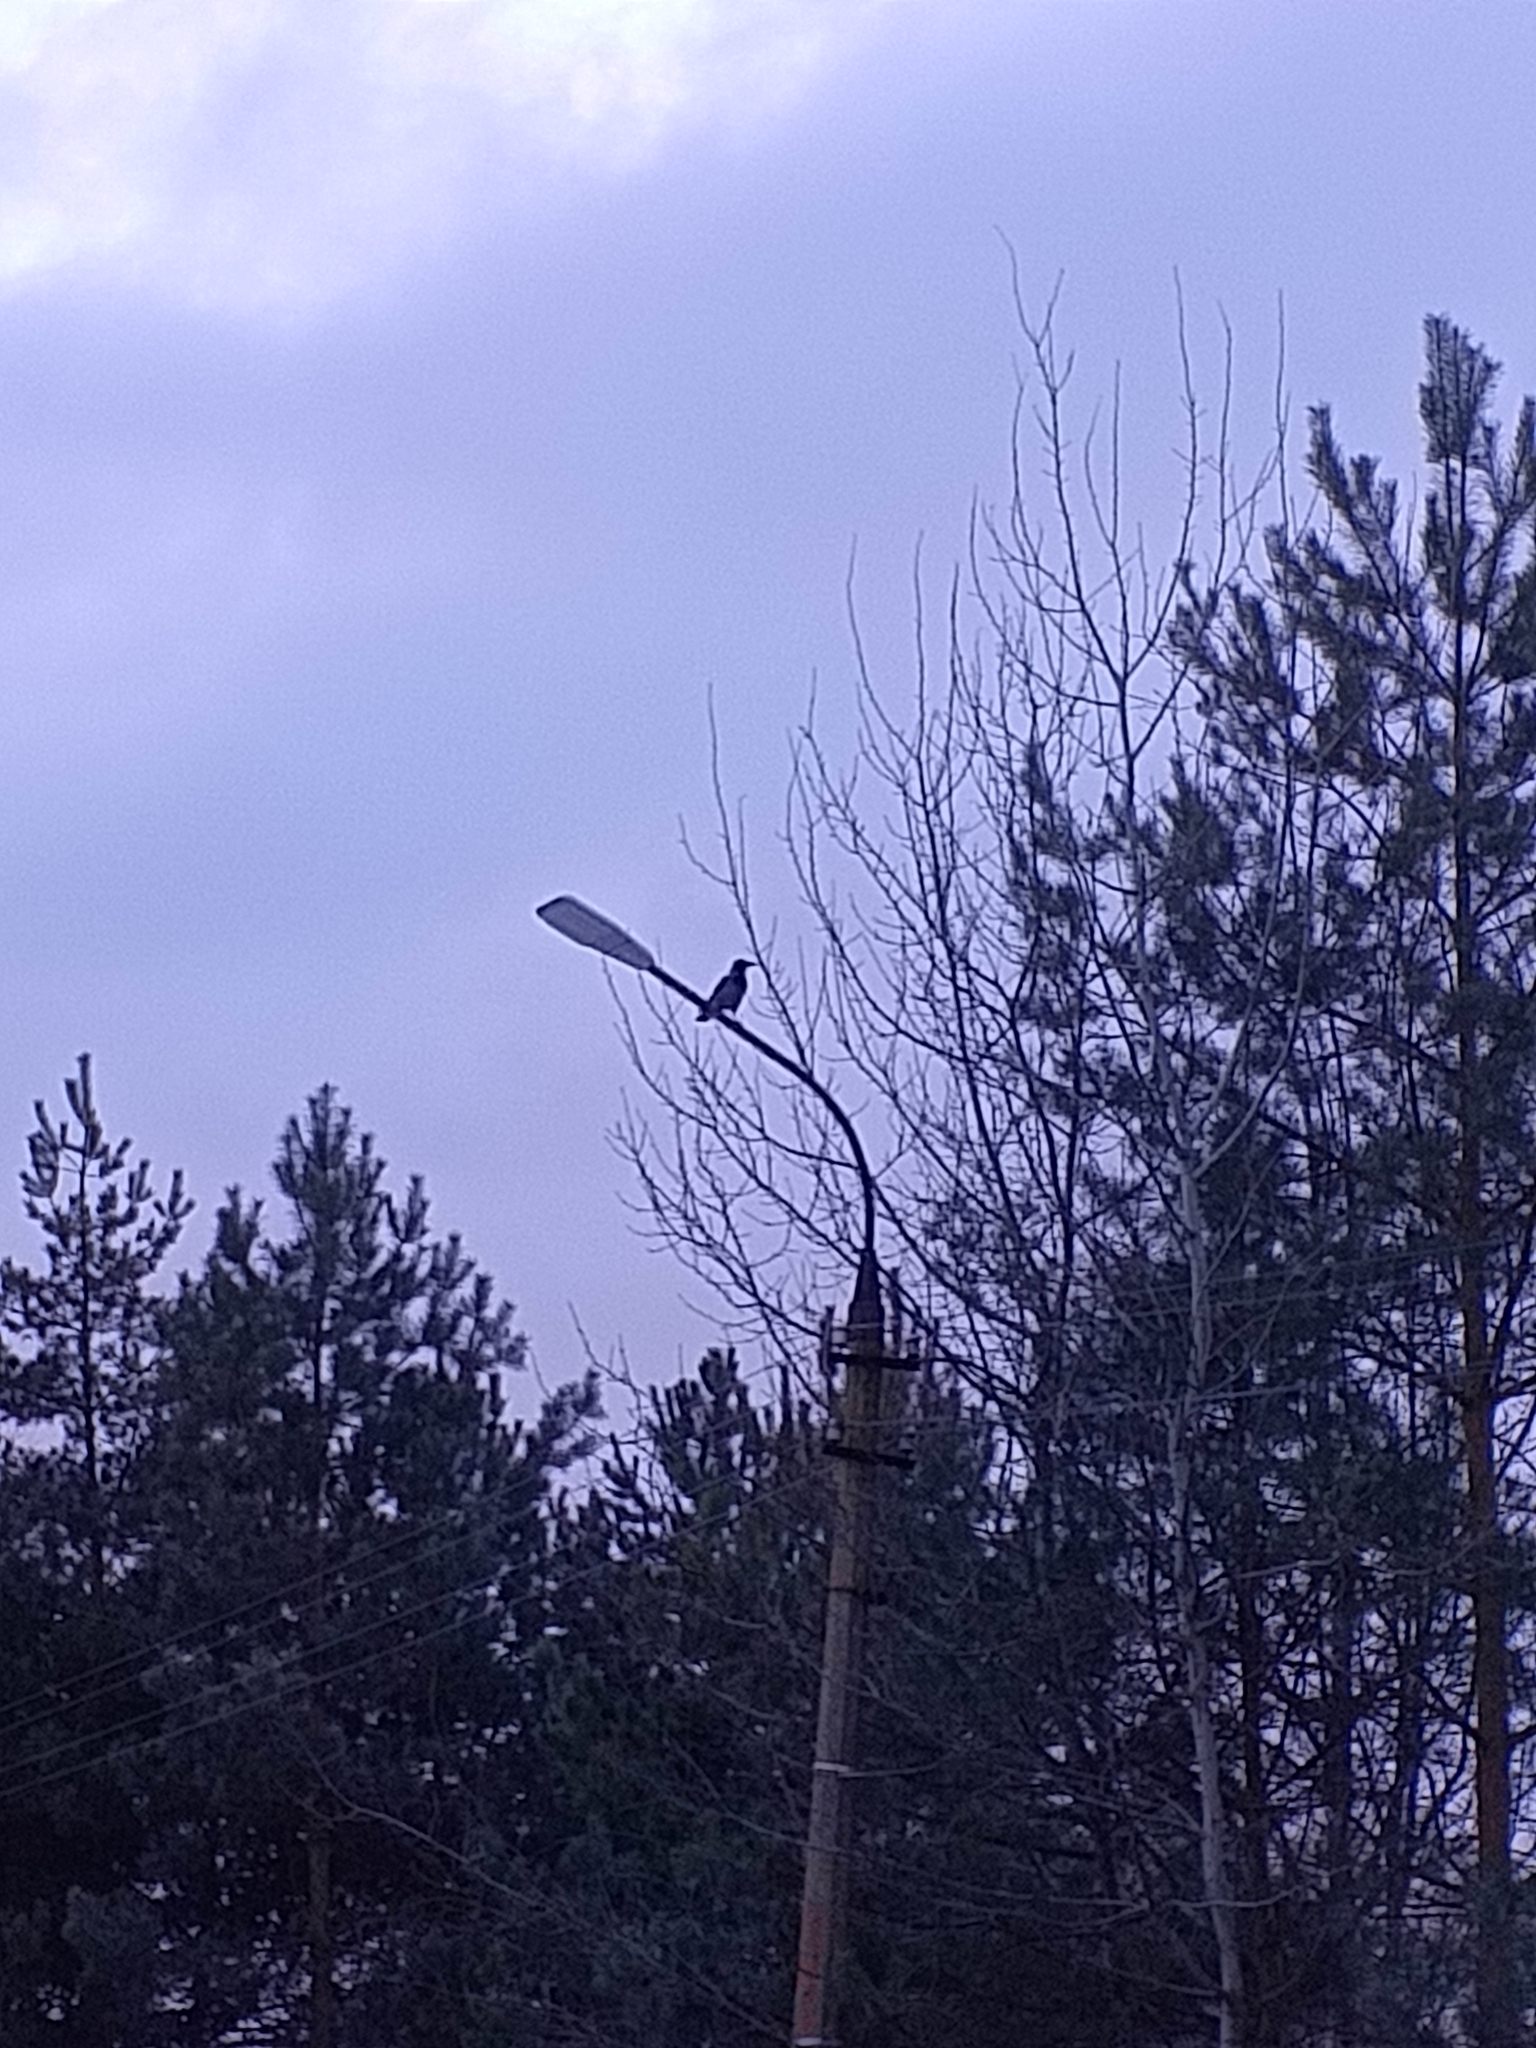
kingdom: Animalia
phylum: Chordata
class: Aves
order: Passeriformes
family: Corvidae
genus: Corvus
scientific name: Corvus cornix
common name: Hooded crow
